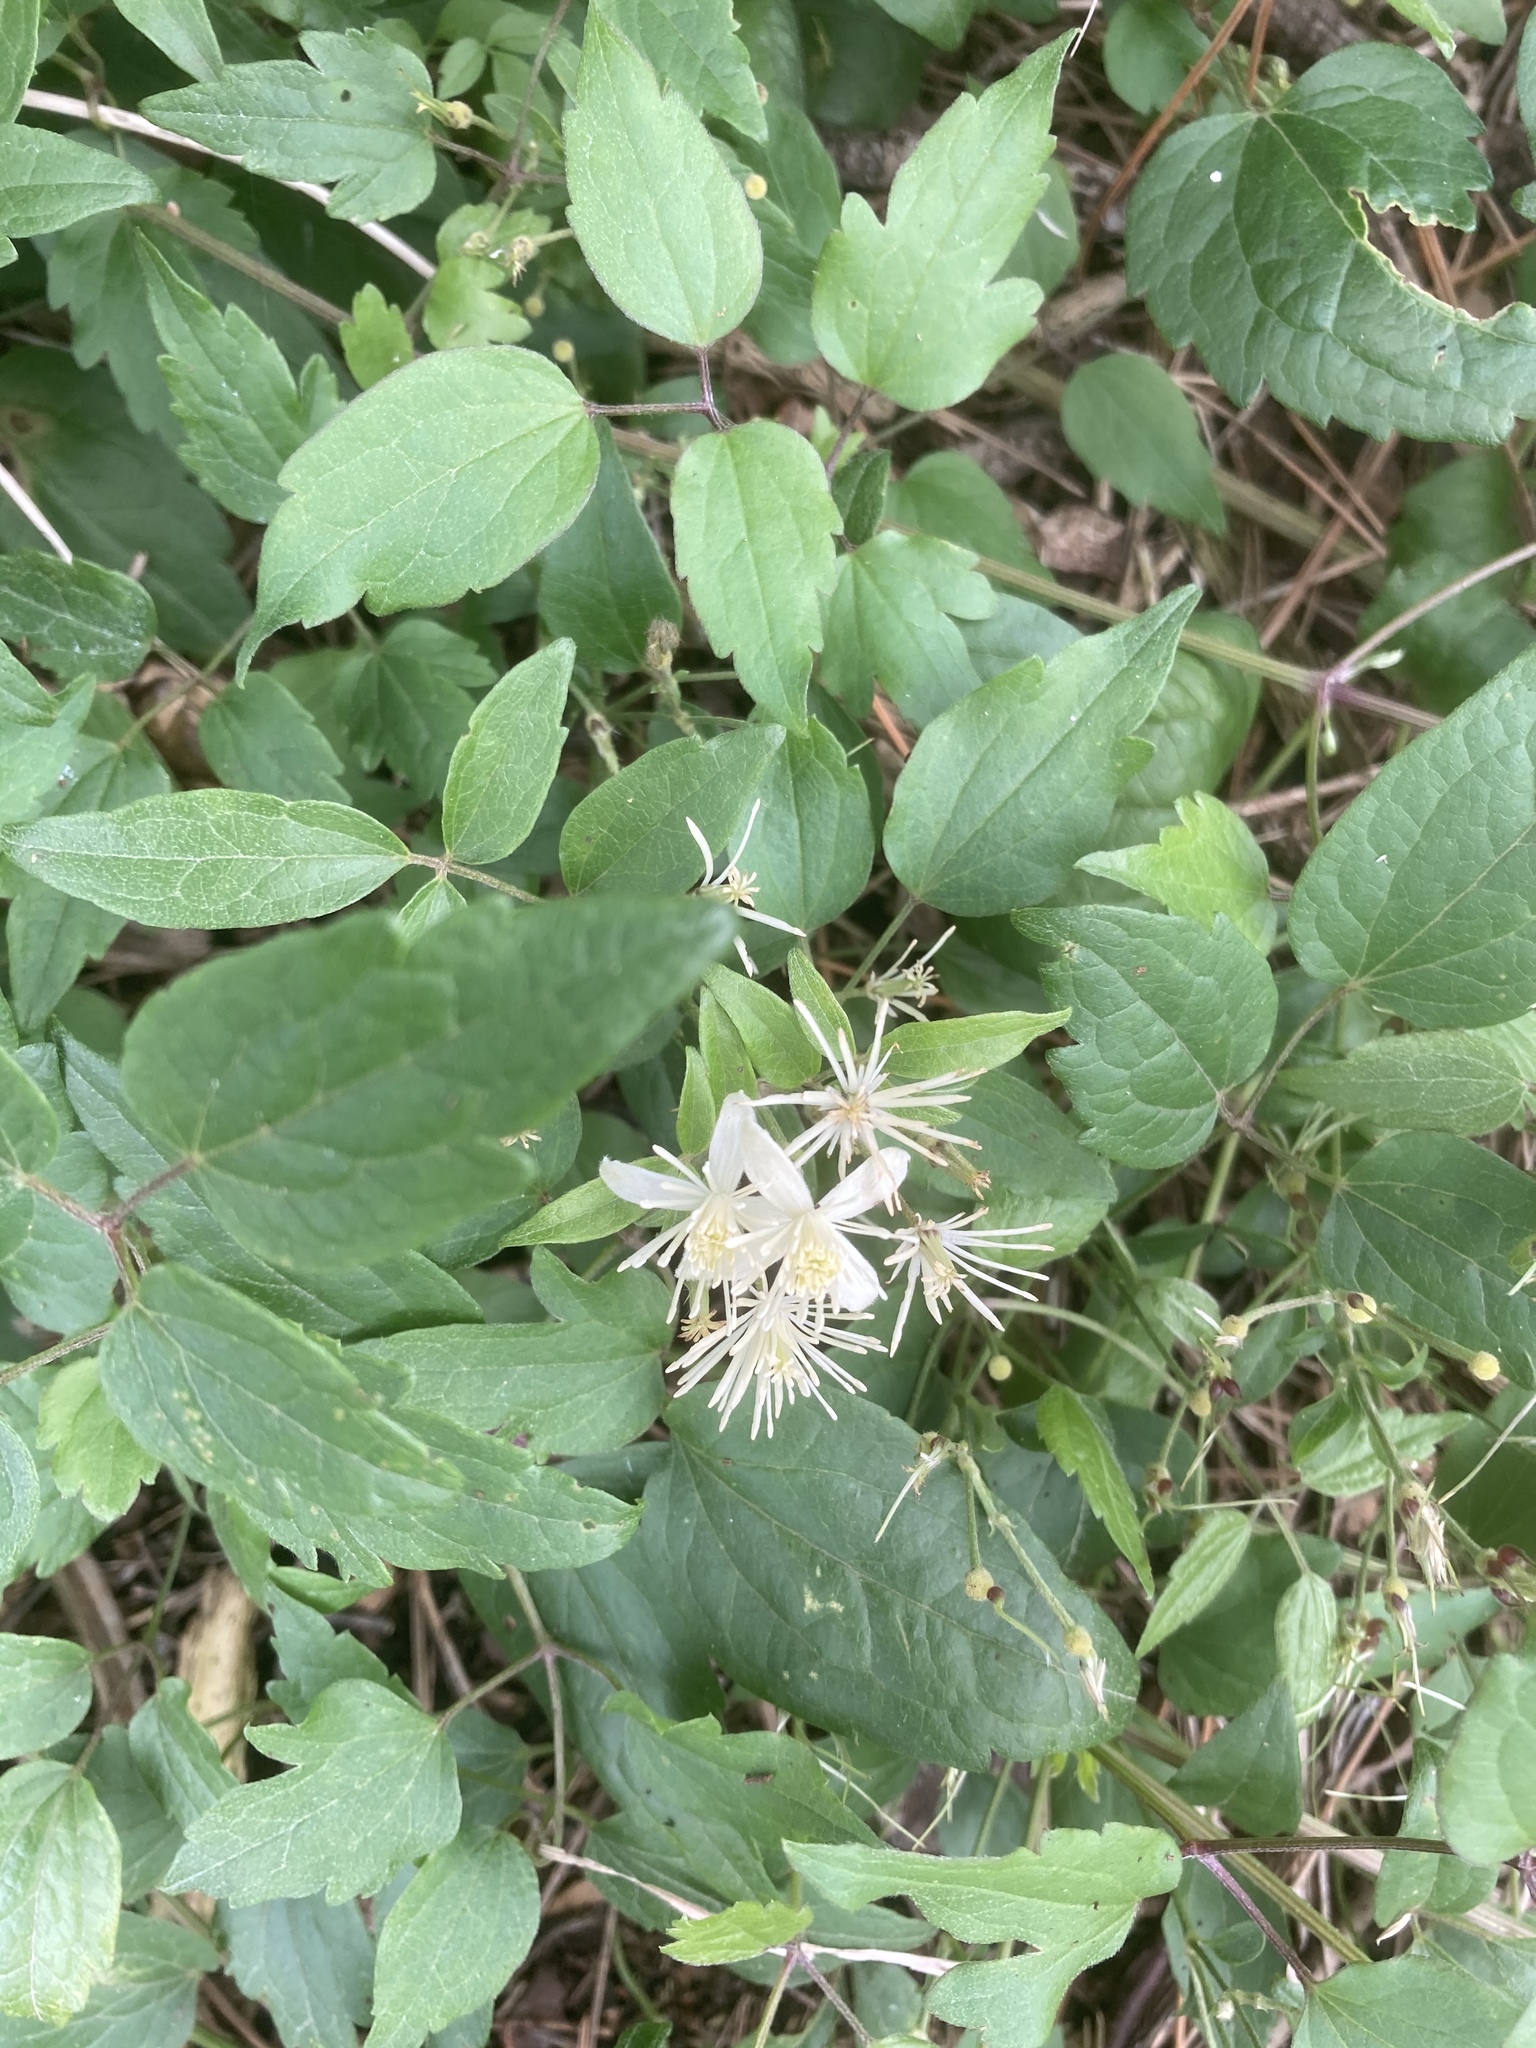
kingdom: Plantae
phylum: Tracheophyta
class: Magnoliopsida
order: Ranunculales
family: Ranunculaceae
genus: Clematis
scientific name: Clematis vitalba
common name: Evergreen clematis
